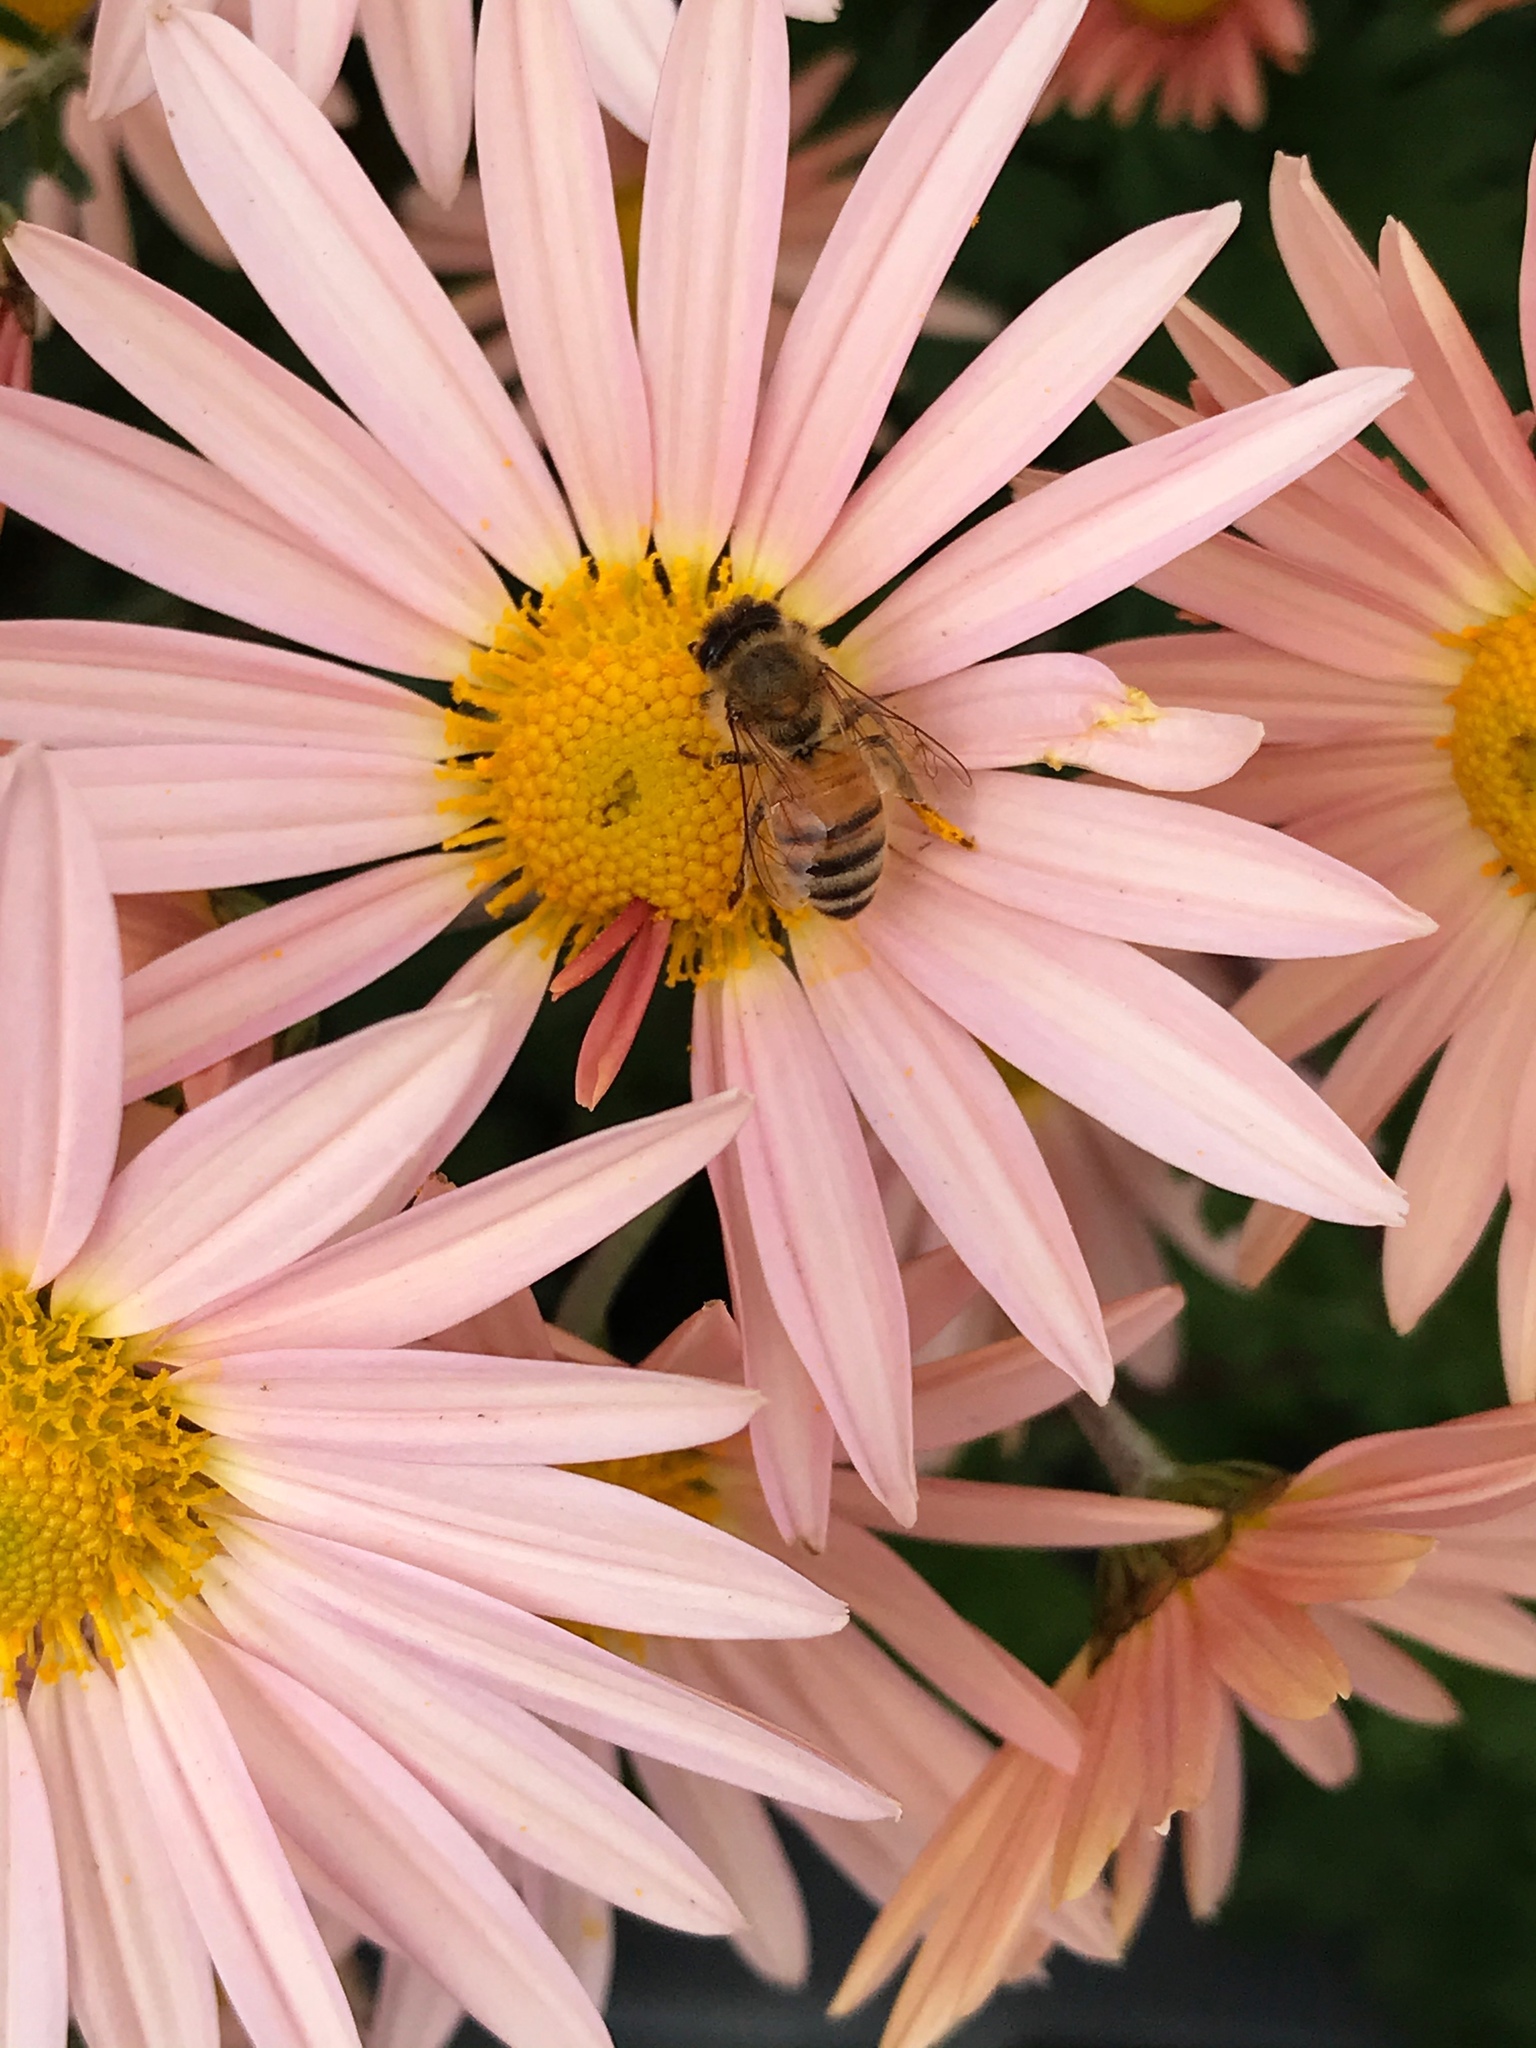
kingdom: Animalia
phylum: Arthropoda
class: Insecta
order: Hymenoptera
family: Apidae
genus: Apis
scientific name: Apis mellifera
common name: Honey bee
